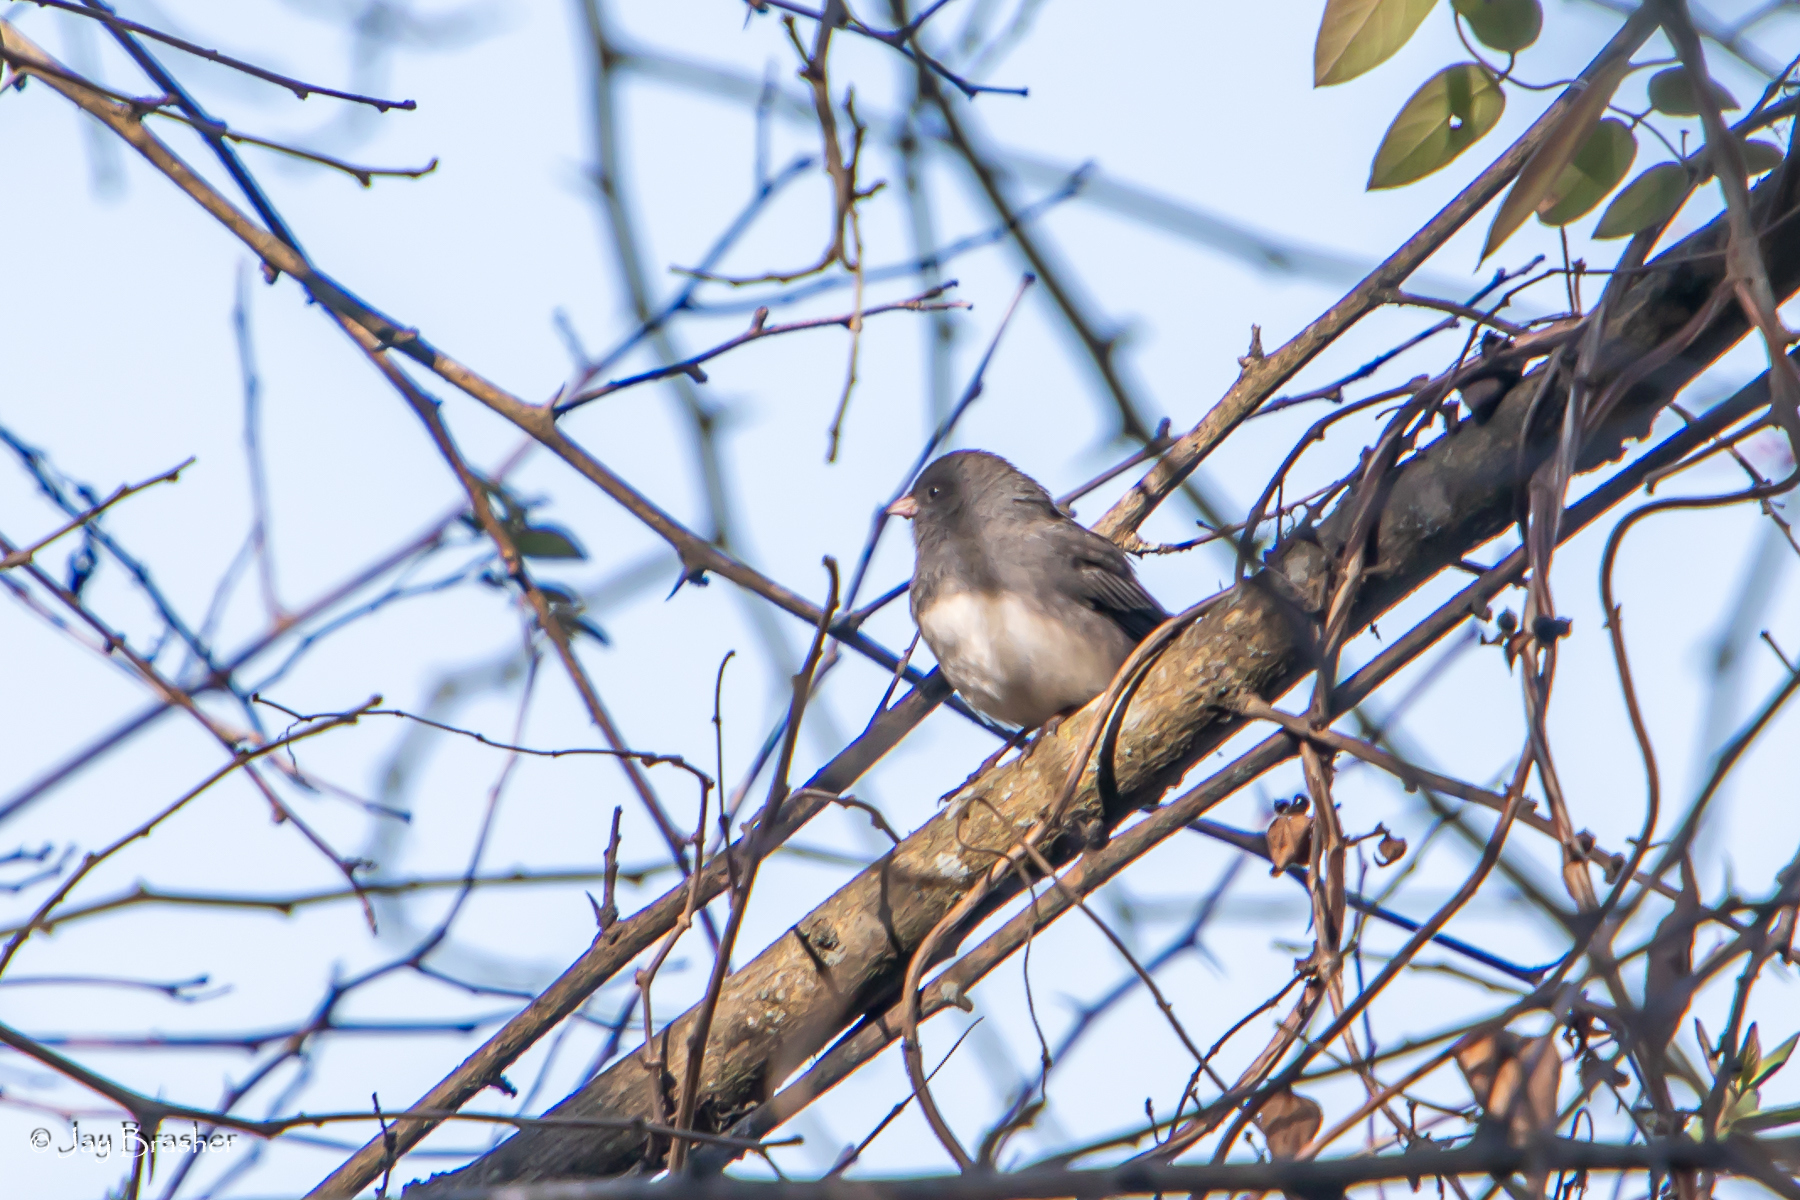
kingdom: Animalia
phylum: Chordata
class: Aves
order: Passeriformes
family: Passerellidae
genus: Junco
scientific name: Junco hyemalis
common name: Dark-eyed junco
